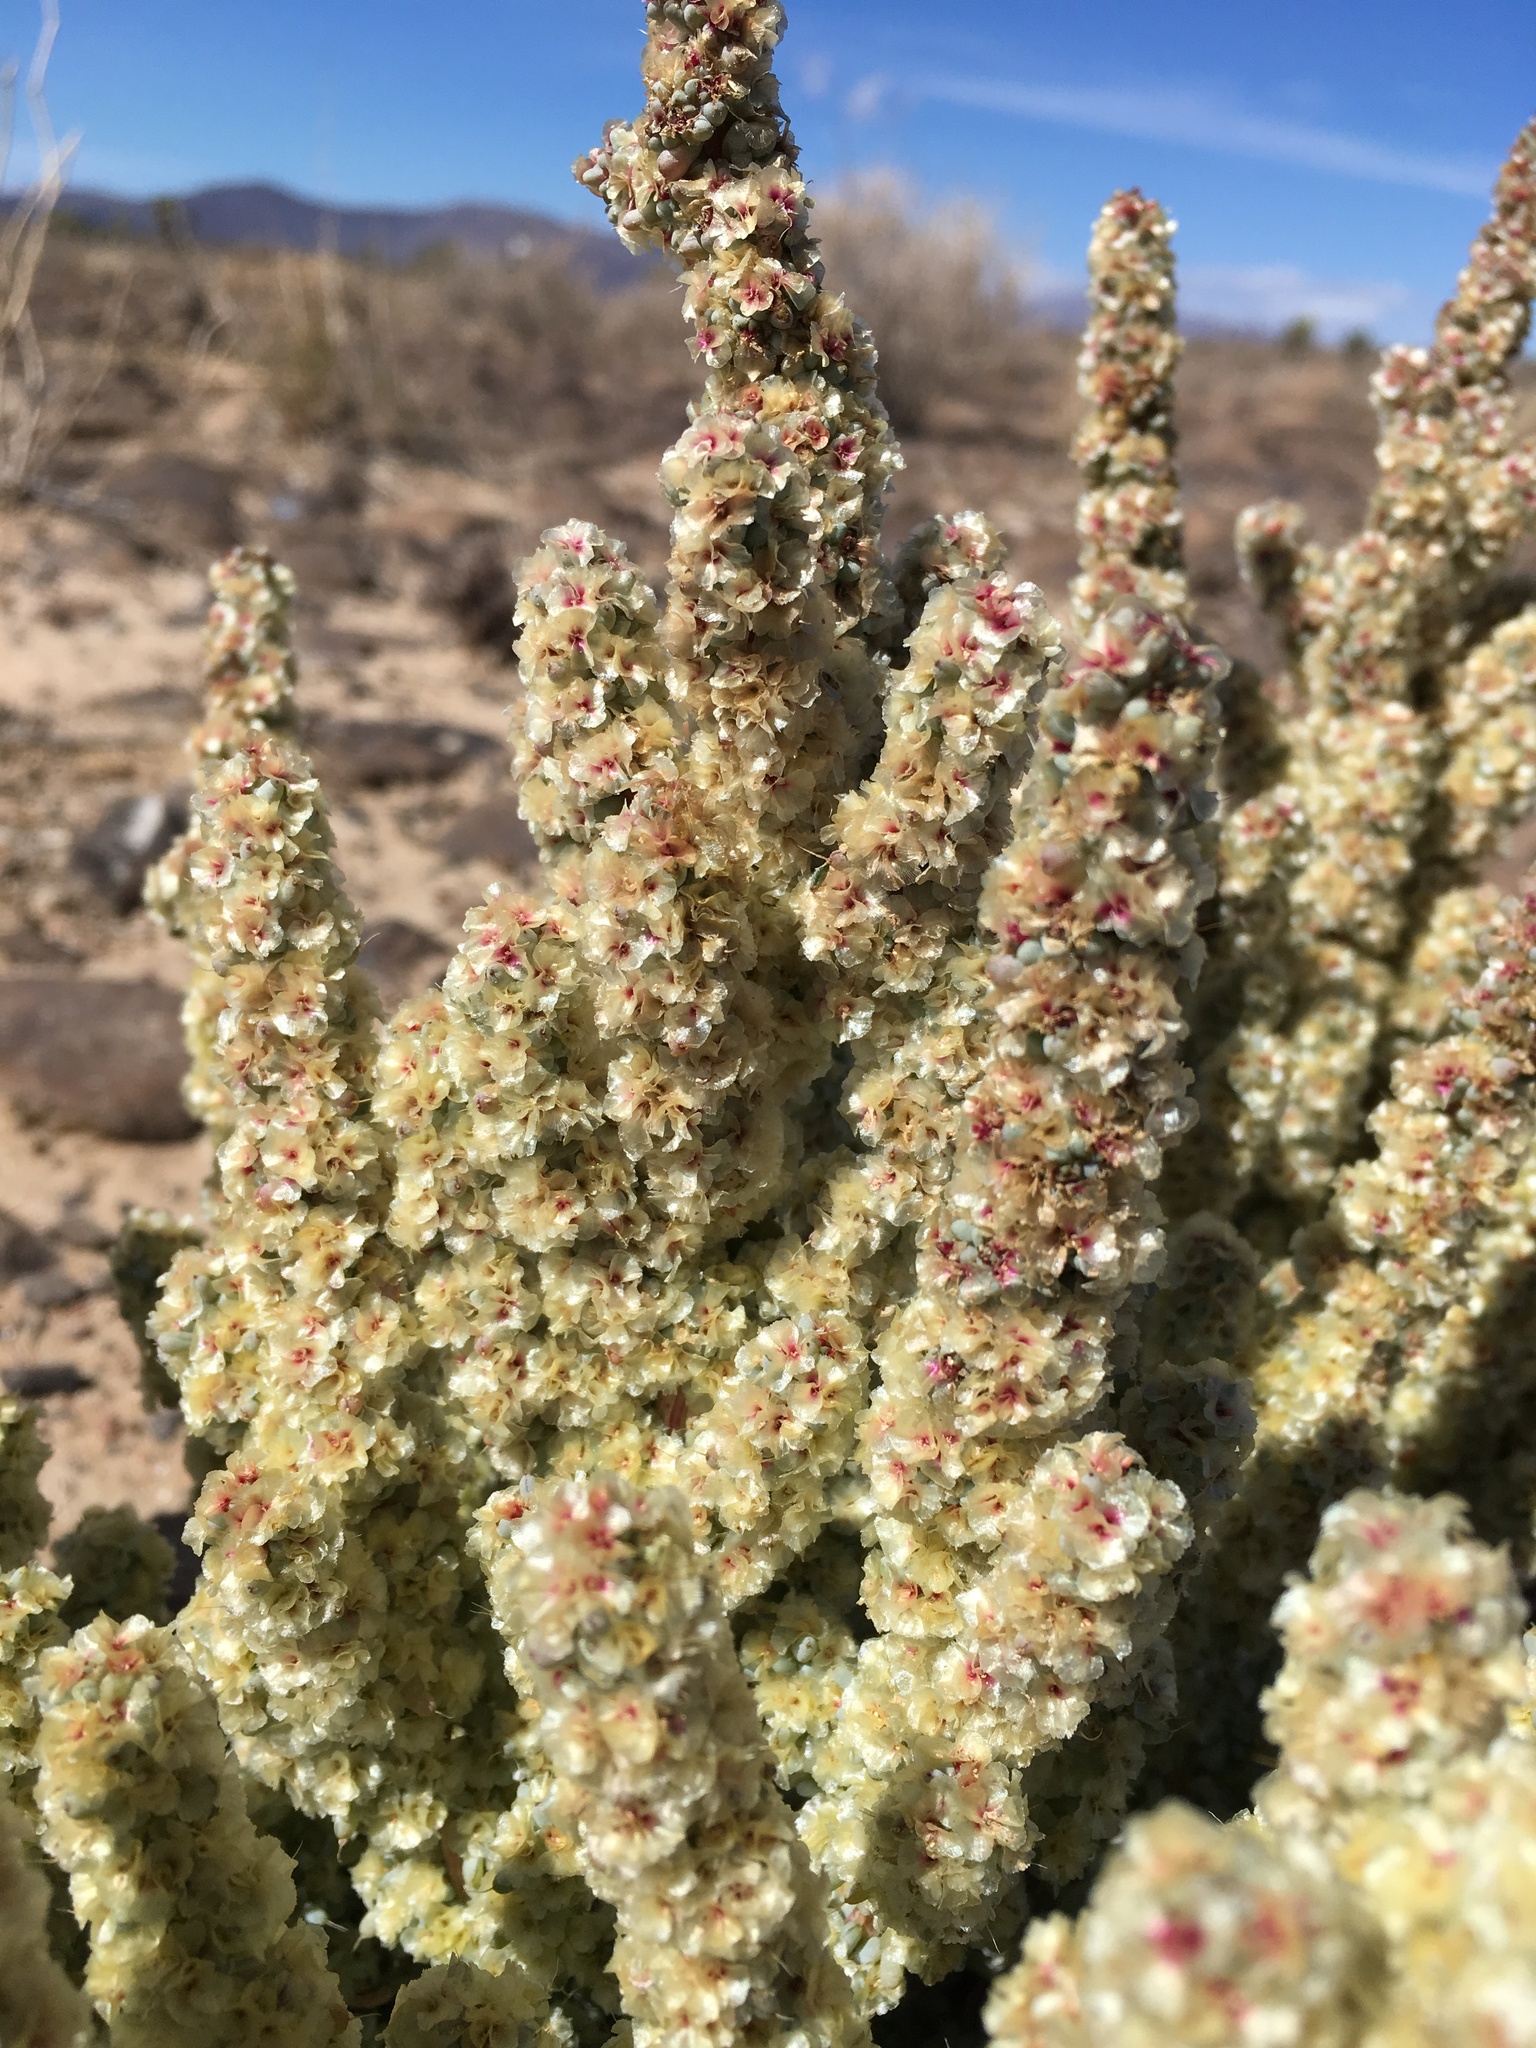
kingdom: Plantae
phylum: Tracheophyta
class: Magnoliopsida
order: Caryophyllales
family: Amaranthaceae
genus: Halogeton
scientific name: Halogeton glomeratus
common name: Saltlover
